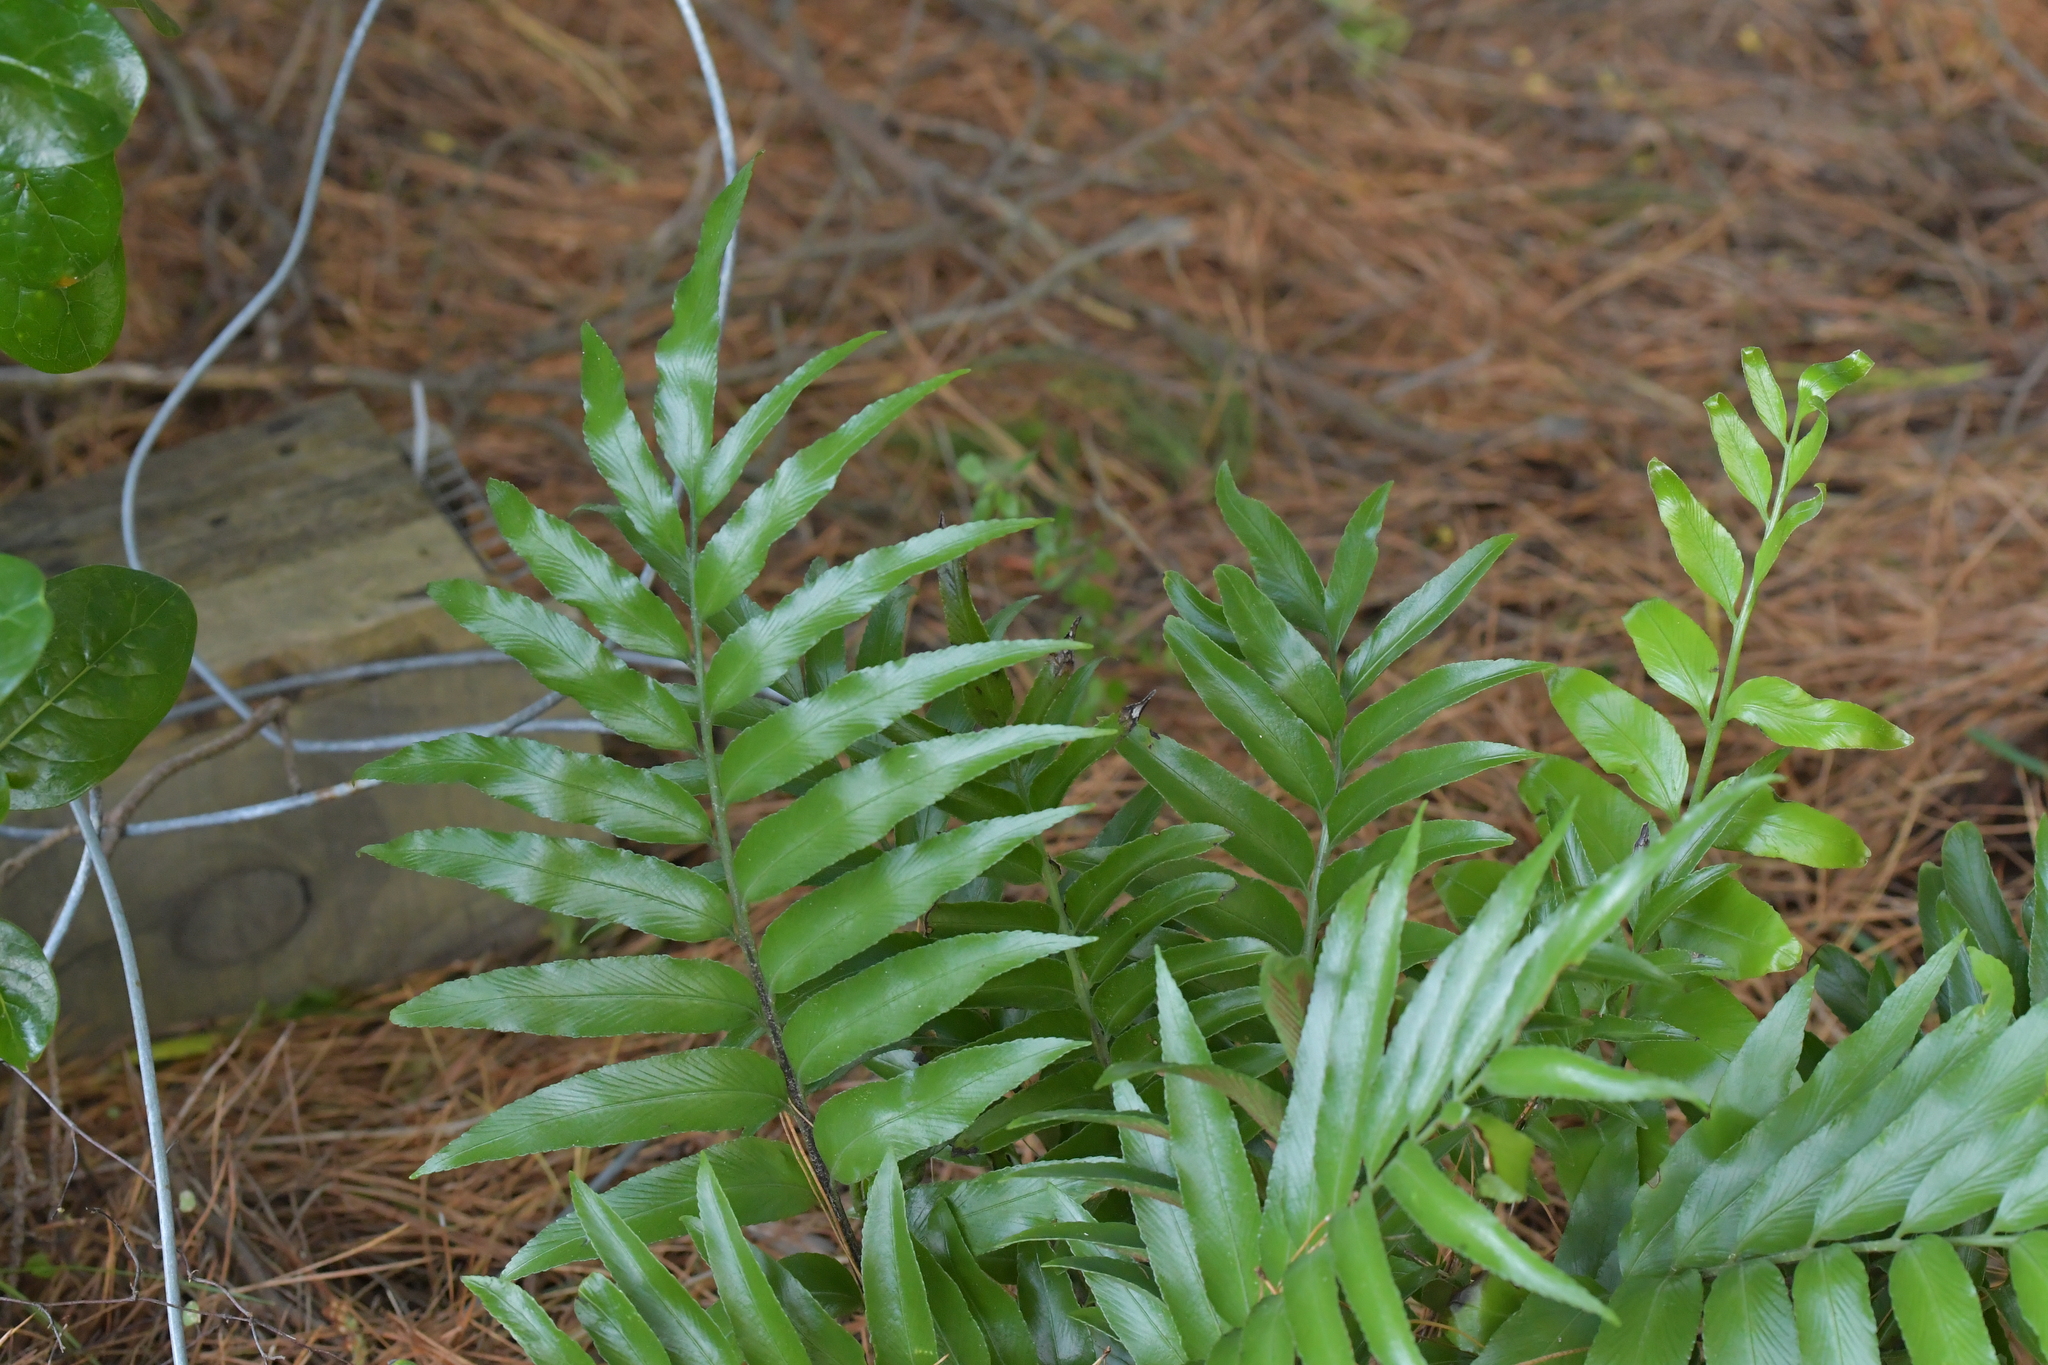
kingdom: Plantae
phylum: Tracheophyta
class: Polypodiopsida
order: Polypodiales
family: Aspleniaceae
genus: Asplenium
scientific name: Asplenium oblongifolium
